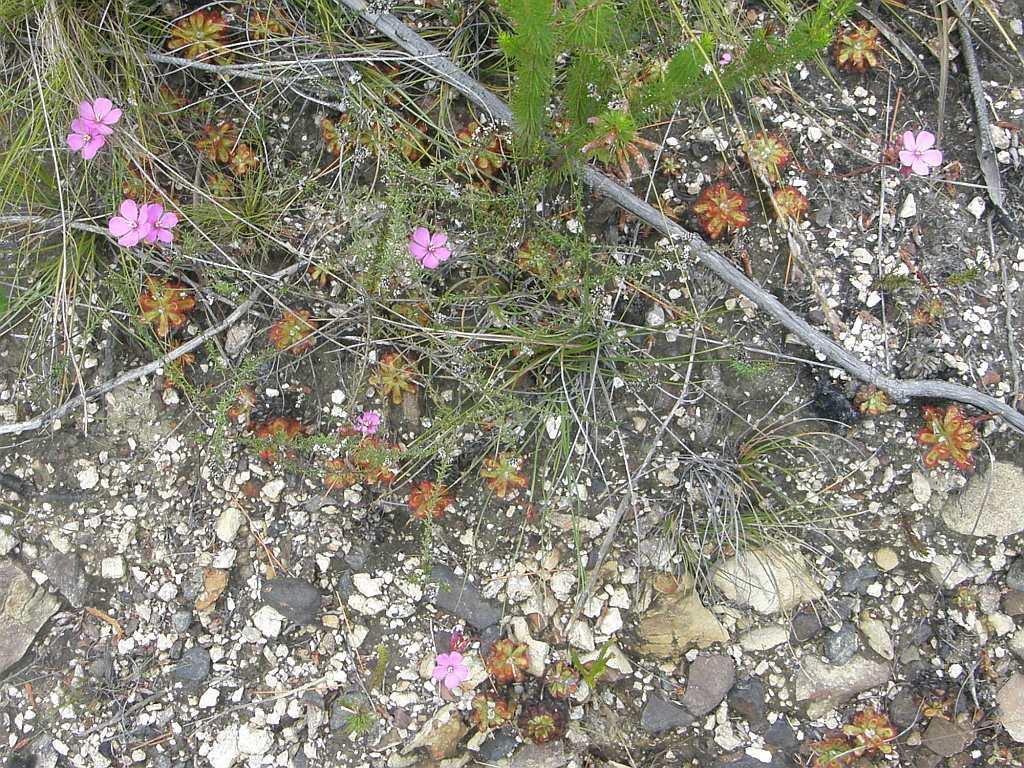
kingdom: Plantae
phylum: Tracheophyta
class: Magnoliopsida
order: Caryophyllales
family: Droseraceae
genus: Drosera
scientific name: Drosera aliciae
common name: Alice sundew
